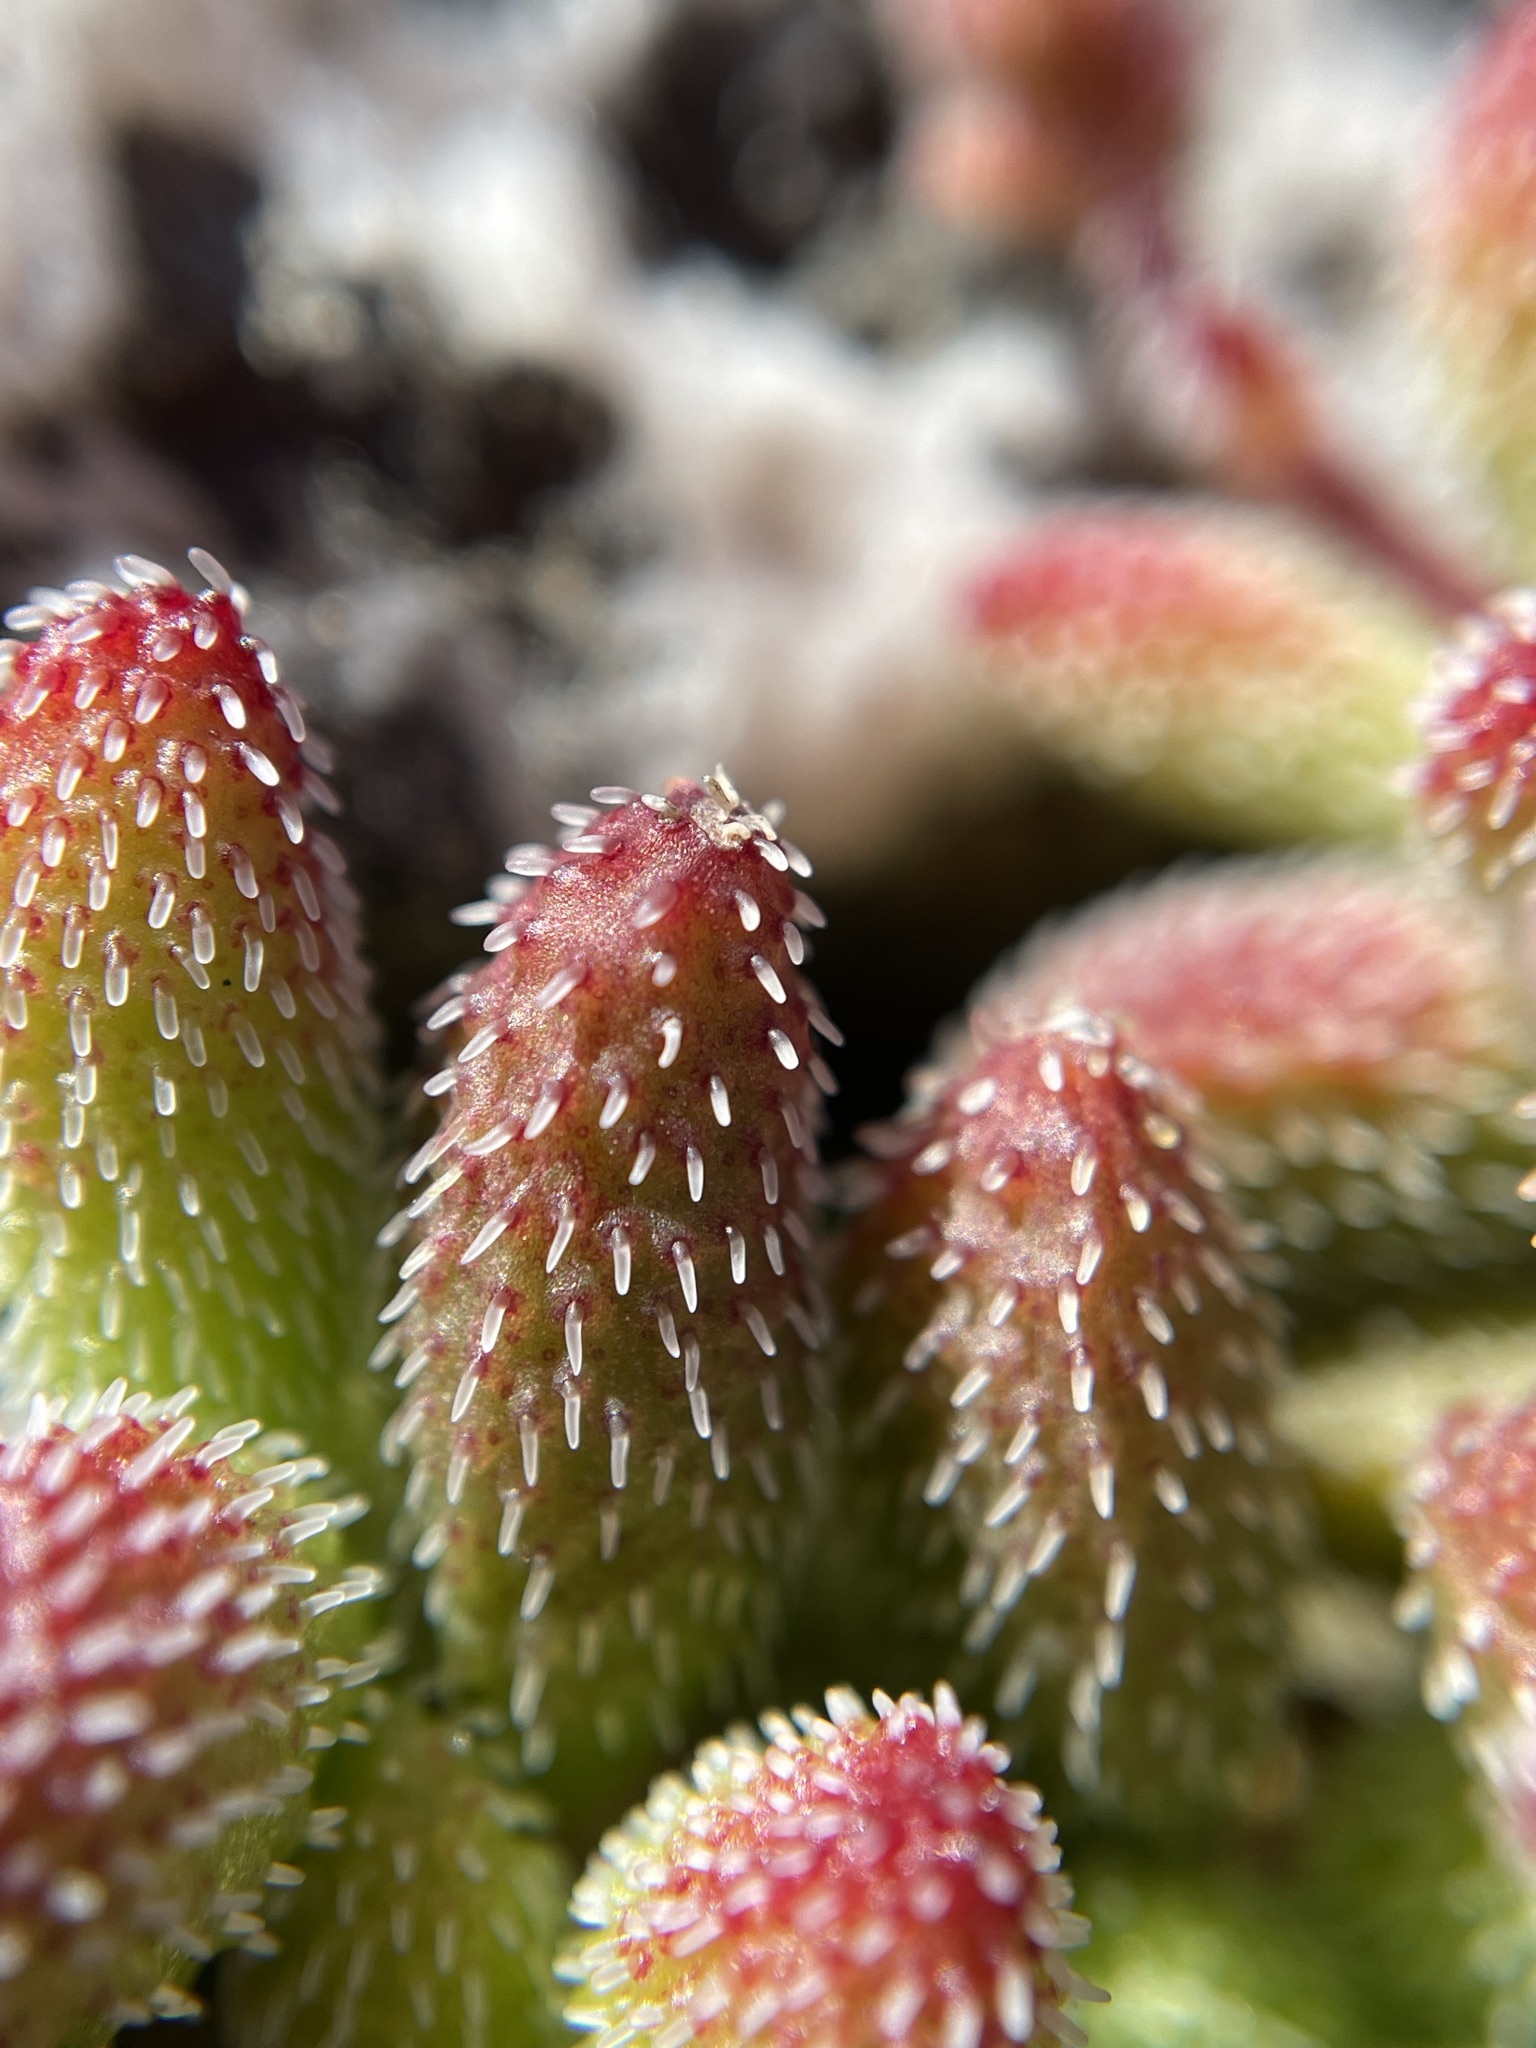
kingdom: Plantae
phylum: Tracheophyta
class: Magnoliopsida
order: Saxifragales
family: Crassulaceae
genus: Crassula
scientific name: Crassula hirtipes
